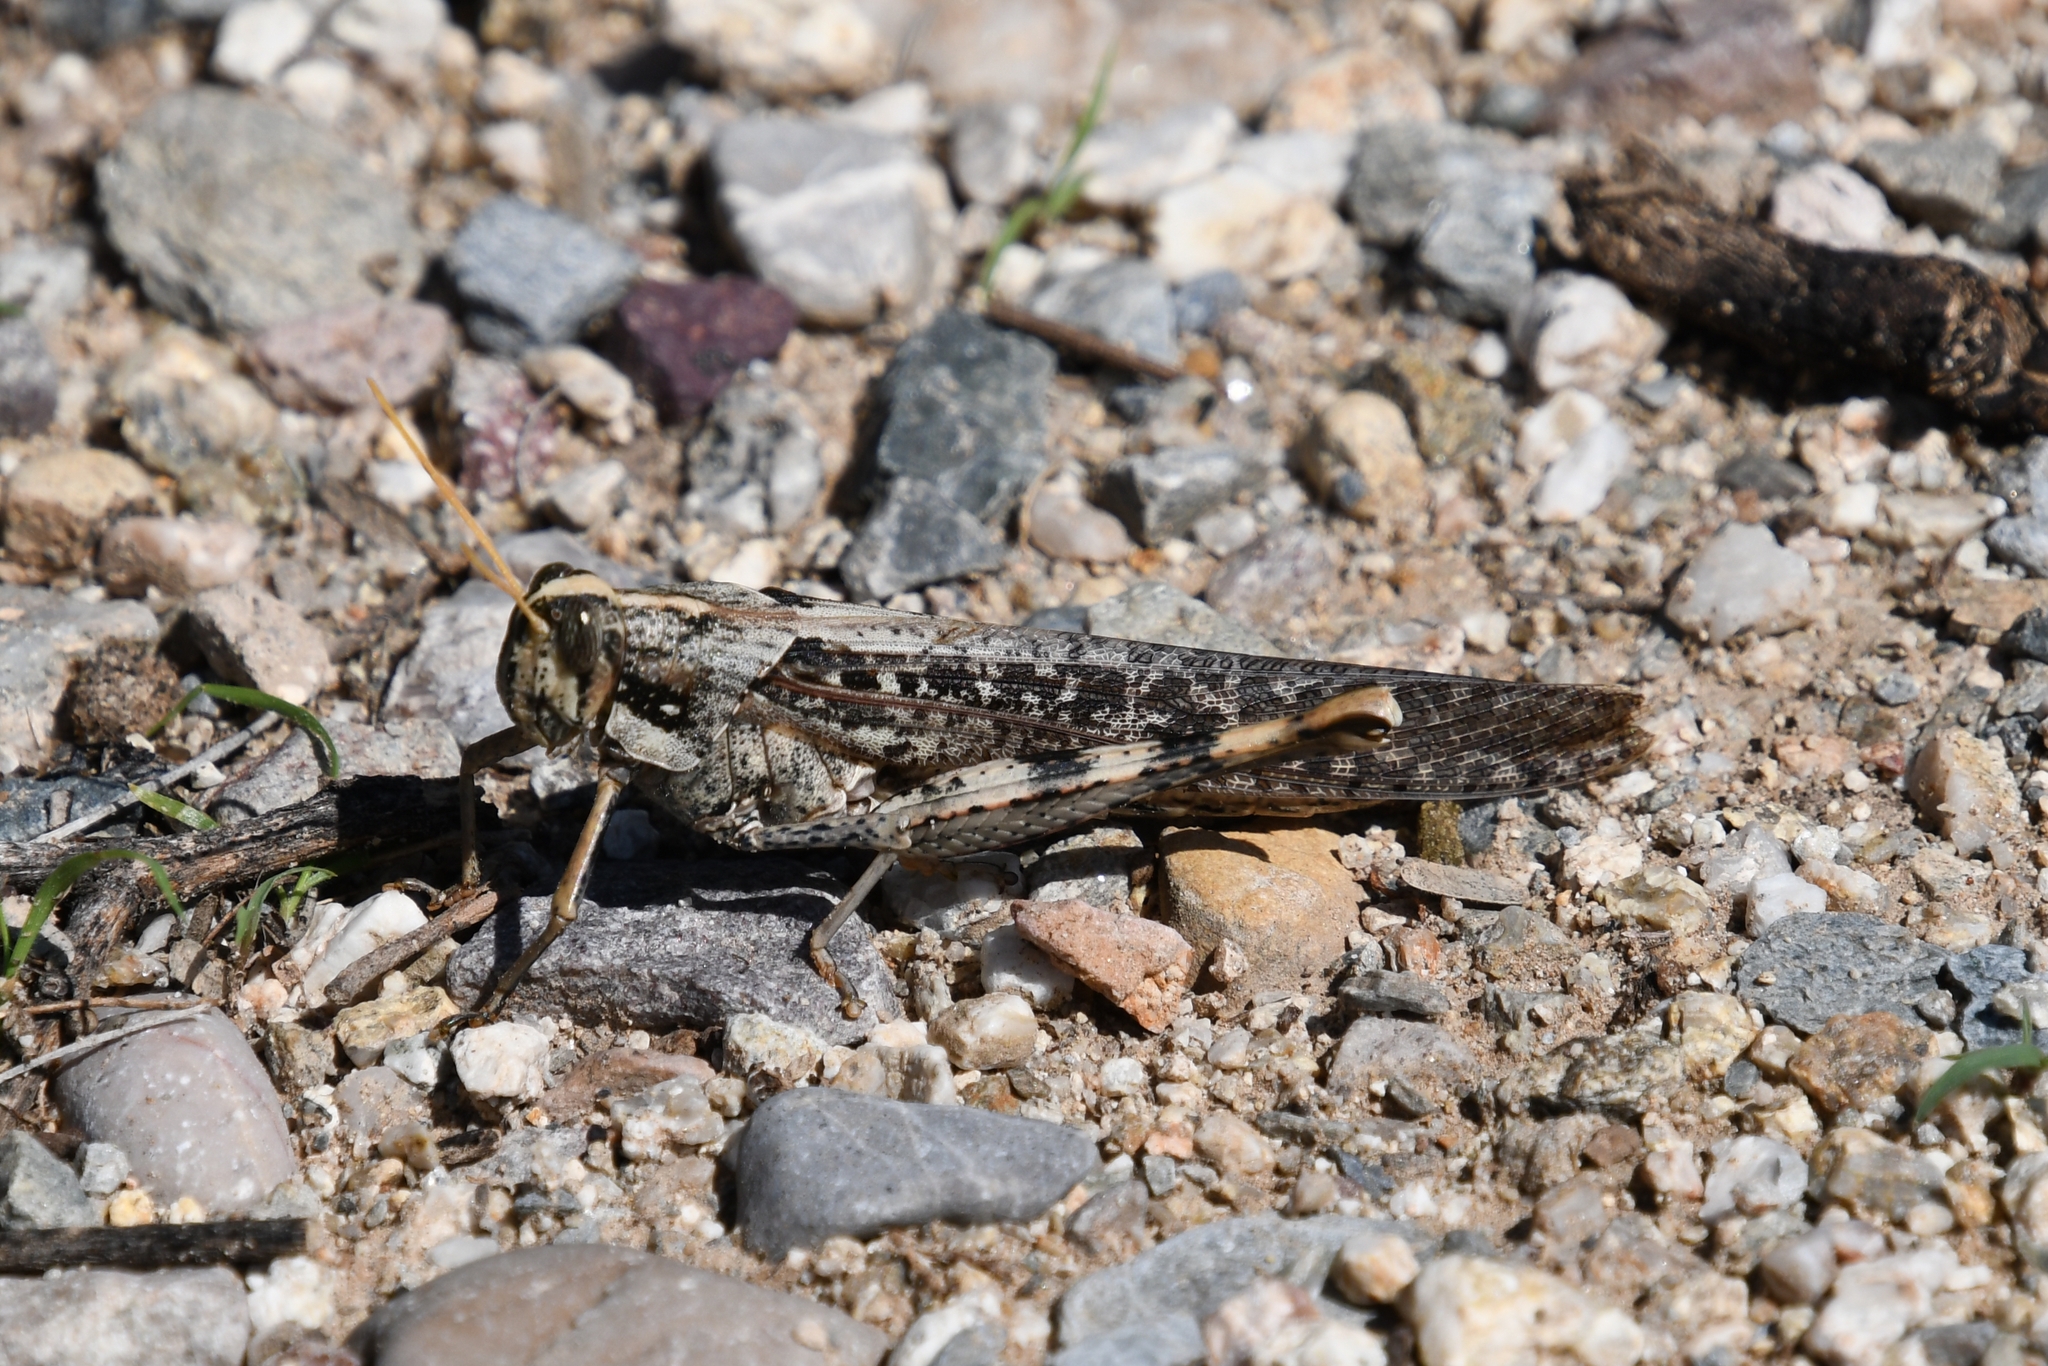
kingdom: Animalia
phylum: Arthropoda
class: Insecta
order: Orthoptera
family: Acrididae
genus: Schistocerca
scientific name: Schistocerca nitens
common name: Vagrant grasshopper
